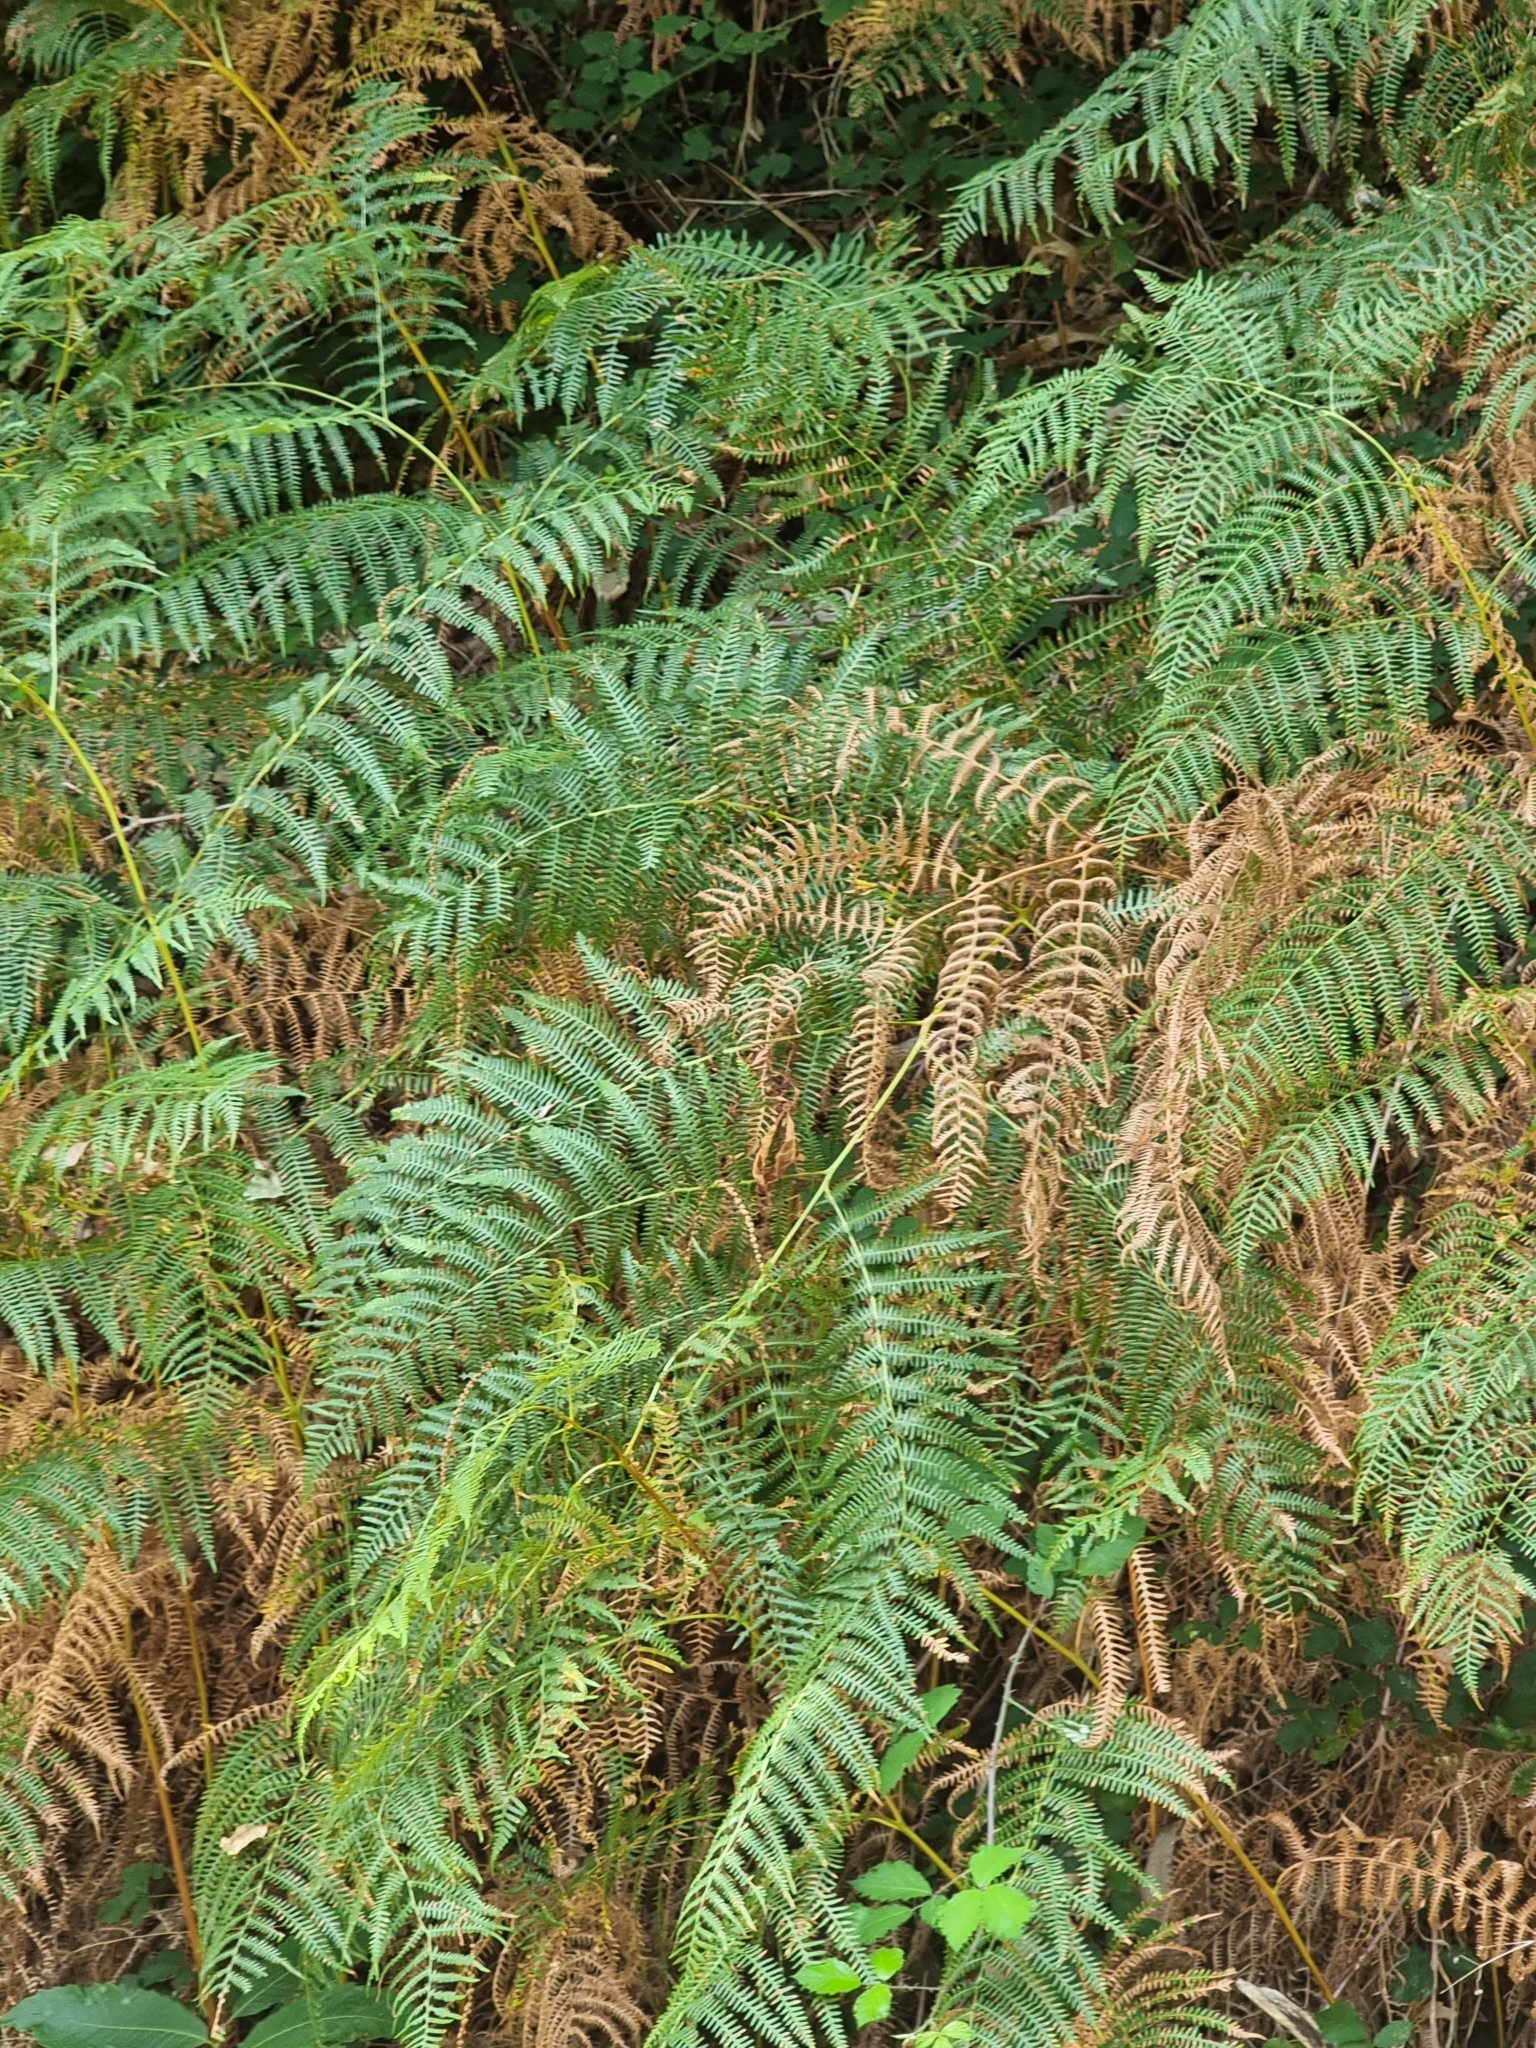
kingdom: Plantae
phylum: Tracheophyta
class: Polypodiopsida
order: Polypodiales
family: Dennstaedtiaceae
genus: Pteridium
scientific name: Pteridium aquilinum
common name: Bracken
